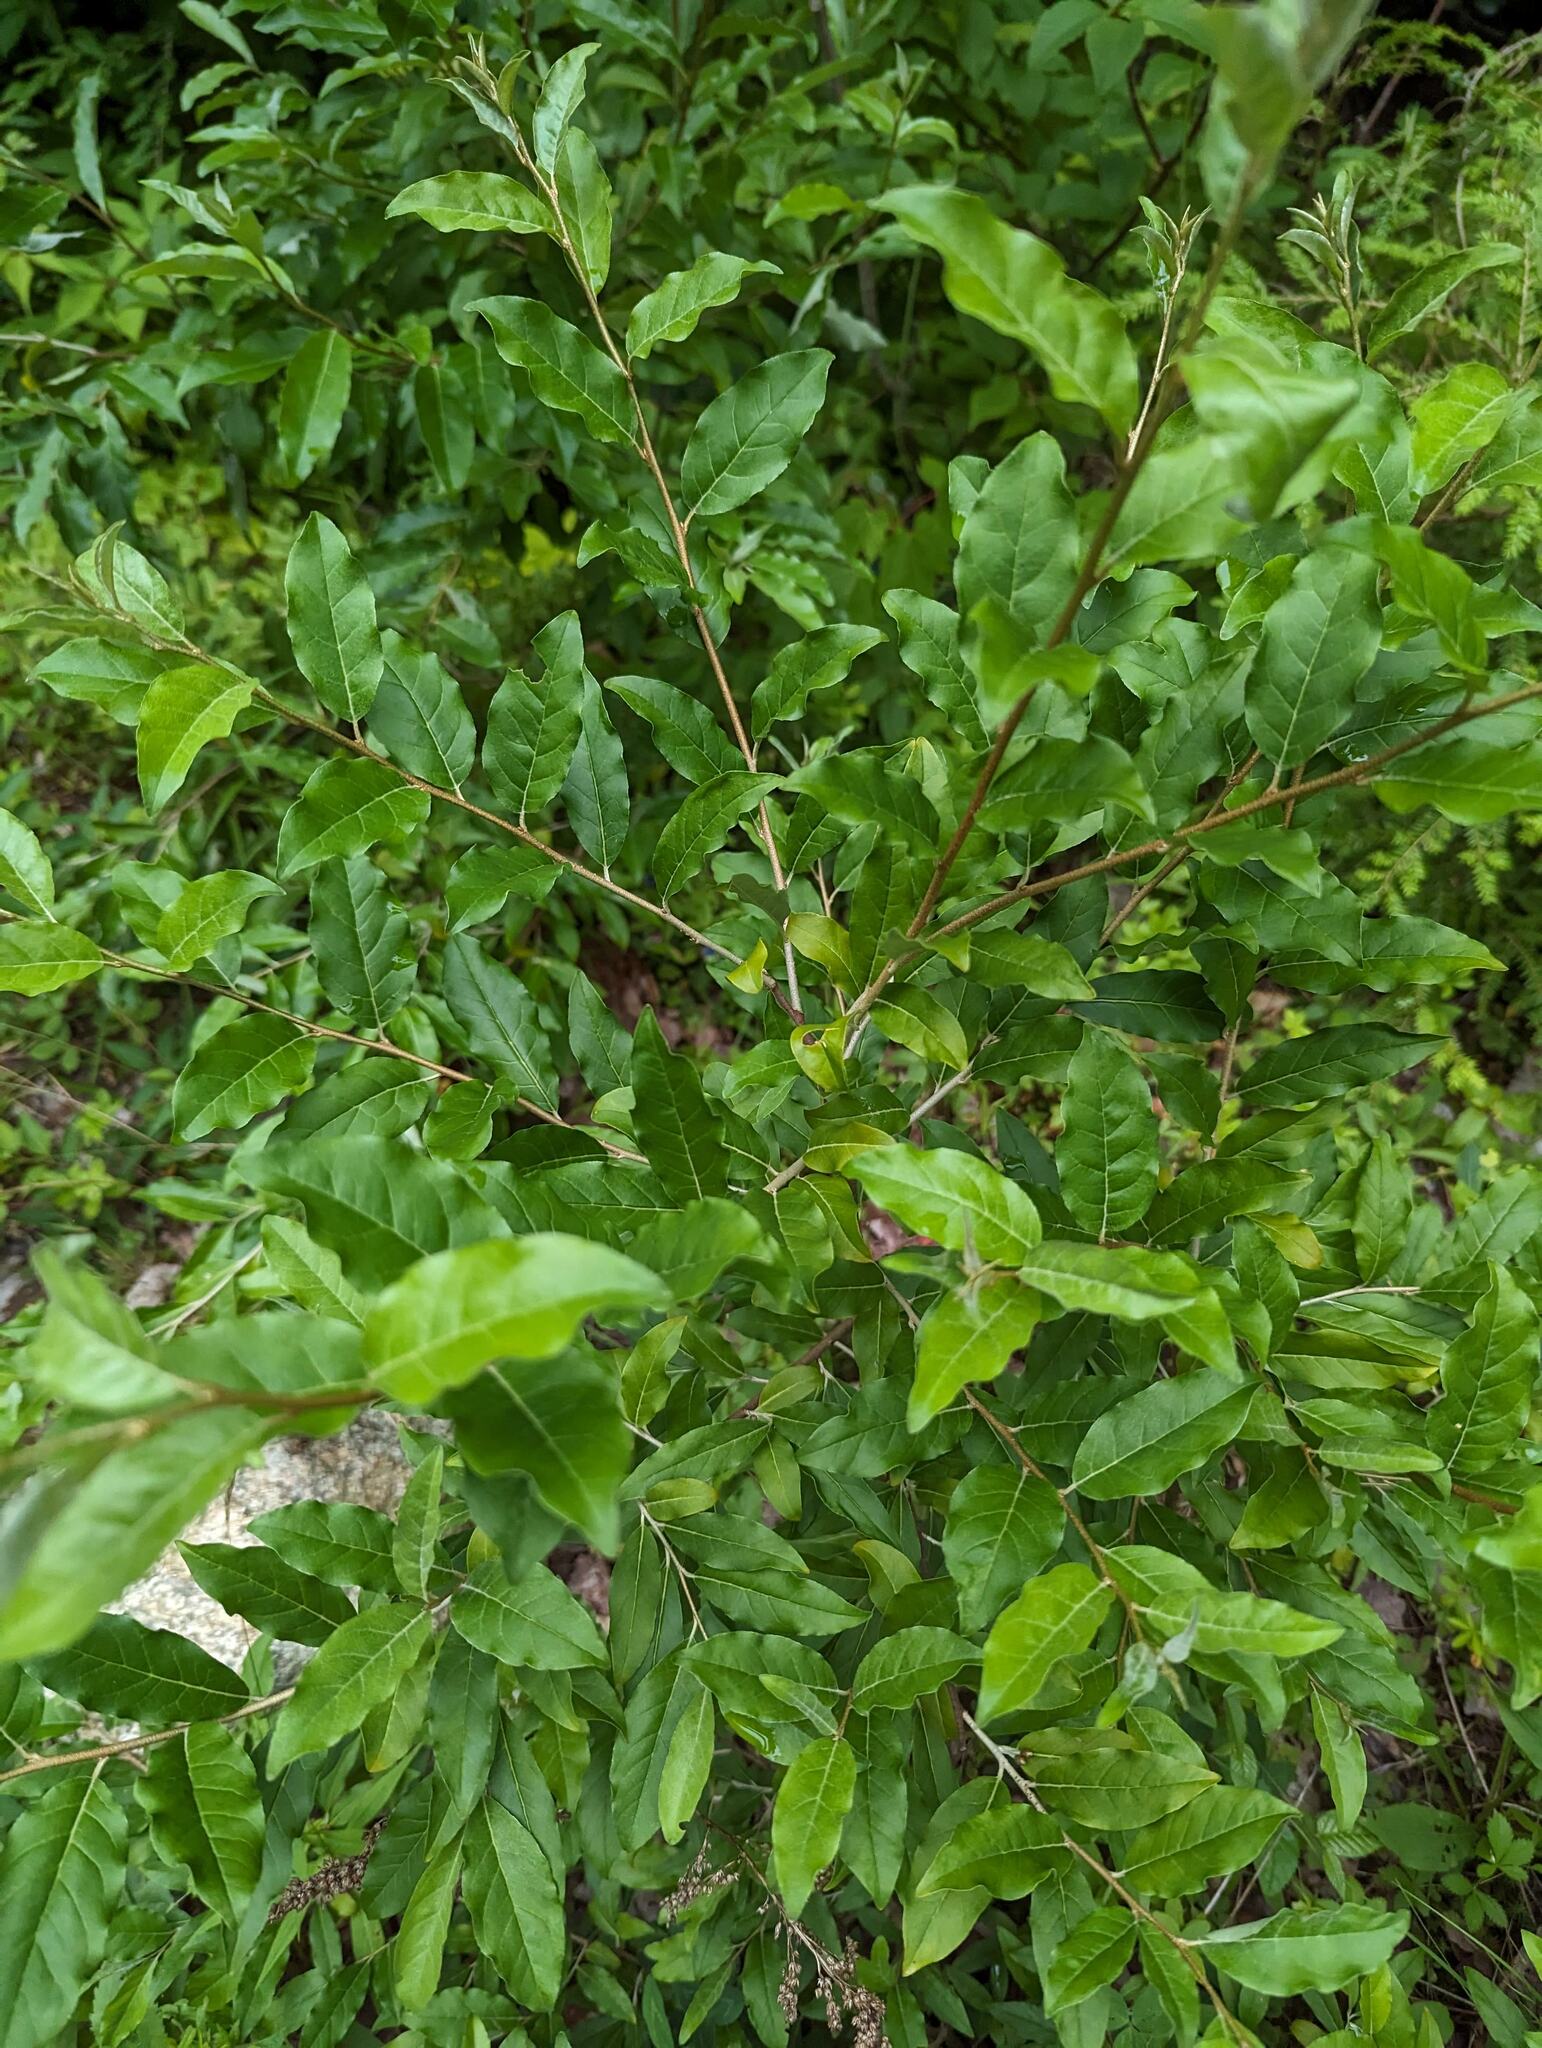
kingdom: Plantae
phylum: Tracheophyta
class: Magnoliopsida
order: Rosales
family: Elaeagnaceae
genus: Elaeagnus
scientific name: Elaeagnus umbellata
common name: Autumn olive
